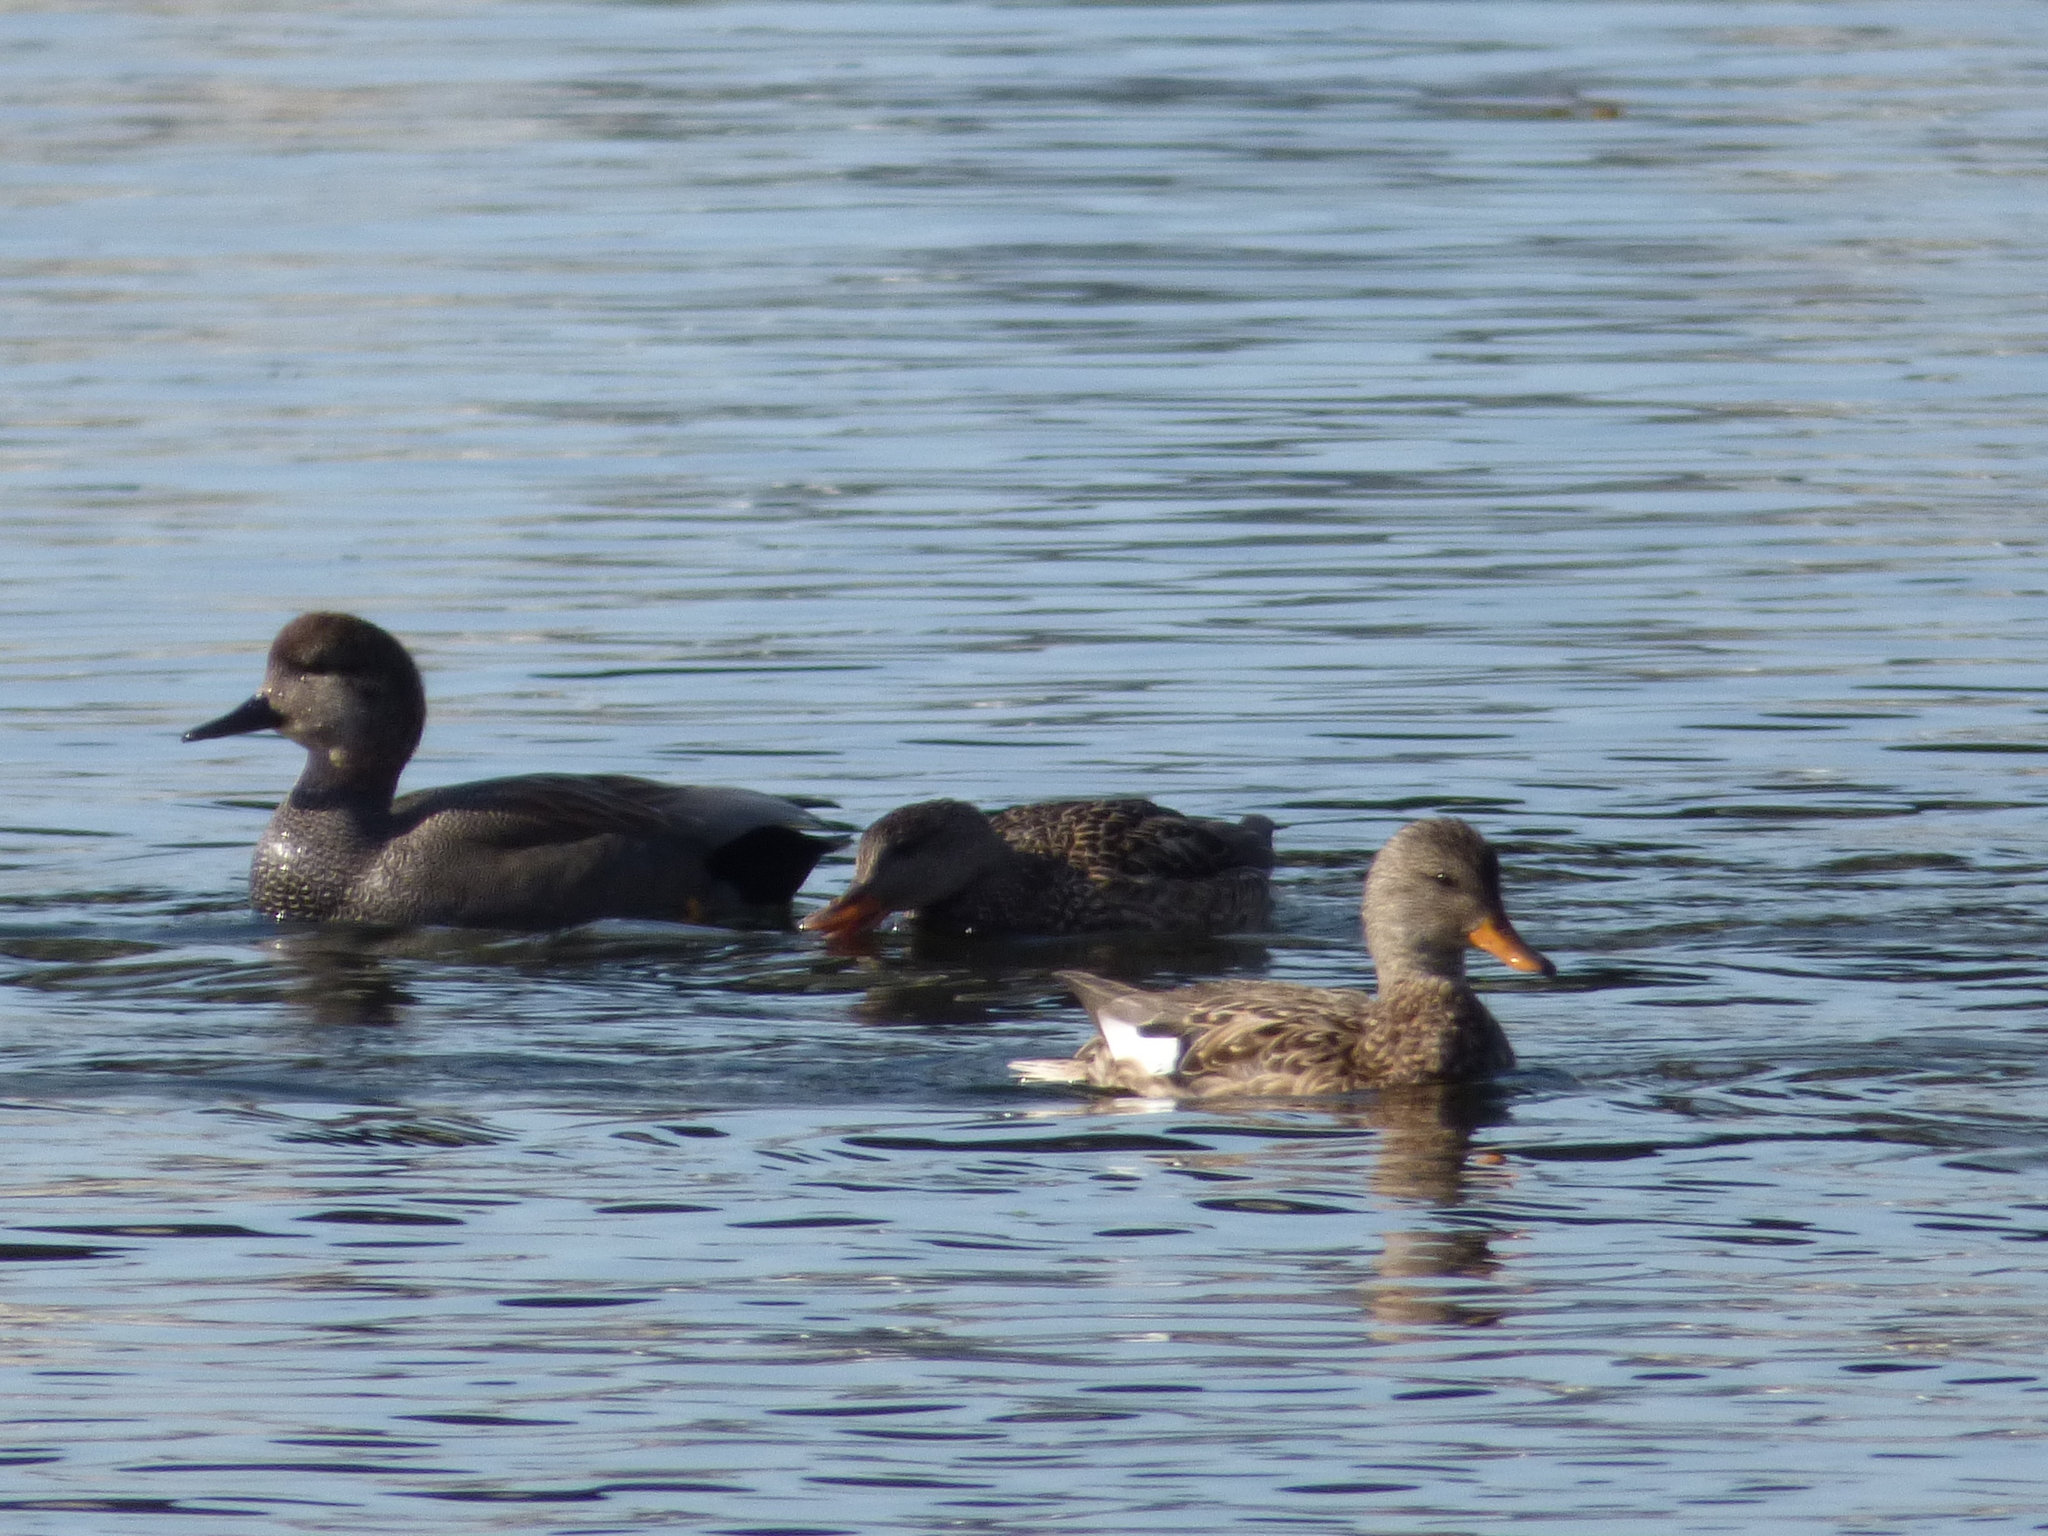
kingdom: Animalia
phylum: Chordata
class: Aves
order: Anseriformes
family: Anatidae
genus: Mareca
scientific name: Mareca strepera
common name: Gadwall
